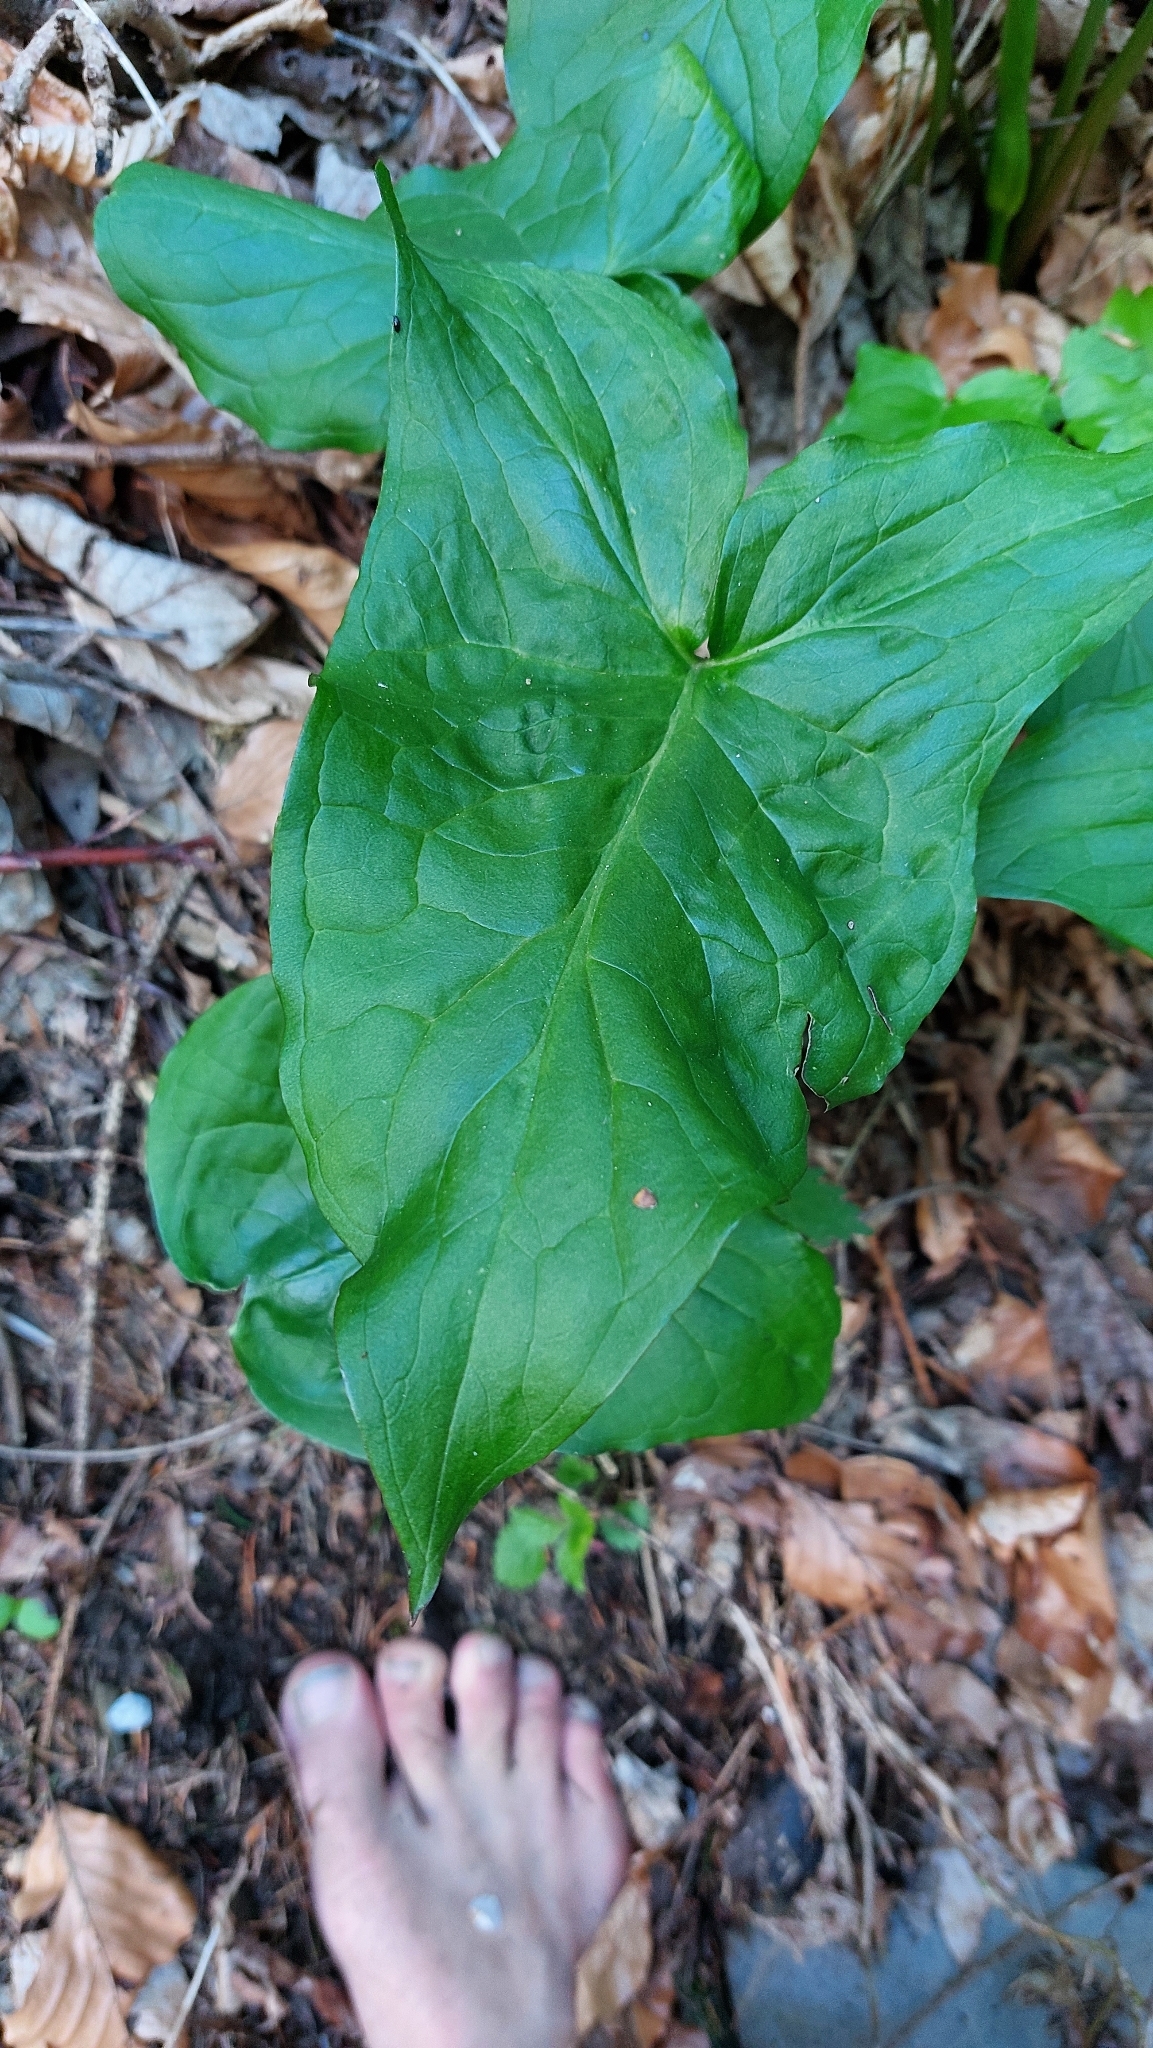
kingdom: Plantae
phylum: Tracheophyta
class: Liliopsida
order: Alismatales
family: Araceae
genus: Arum
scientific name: Arum maculatum
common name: Lords-and-ladies
